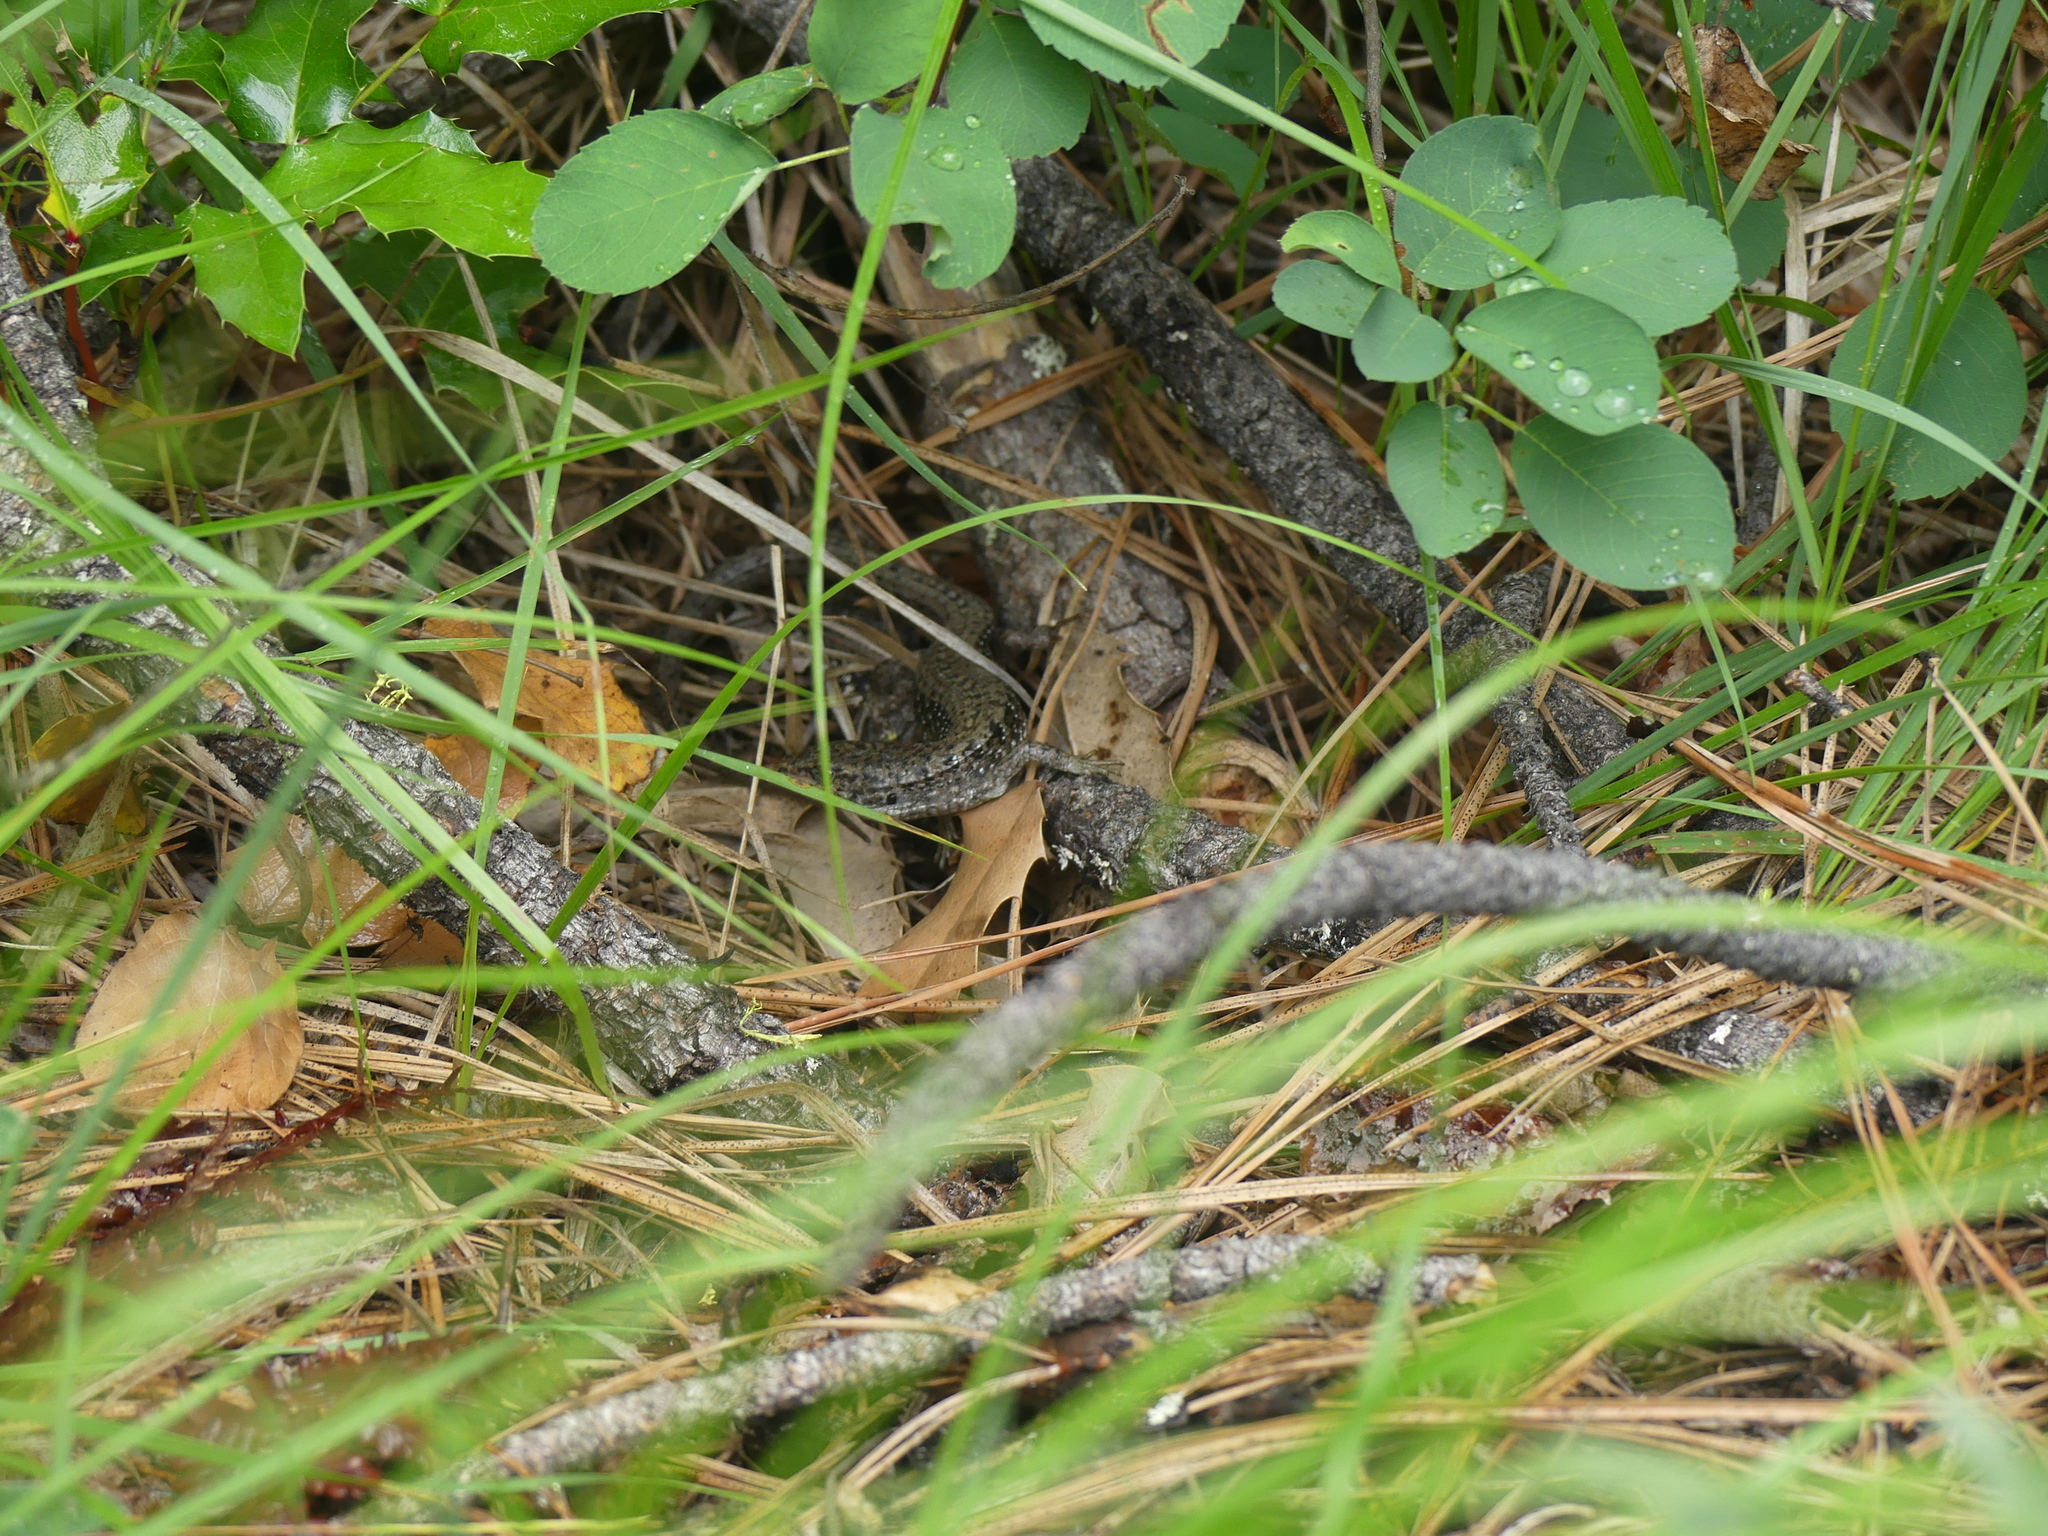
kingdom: Animalia
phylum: Chordata
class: Squamata
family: Anguidae
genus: Elgaria
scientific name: Elgaria coerulea
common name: Northern alligator lizard
